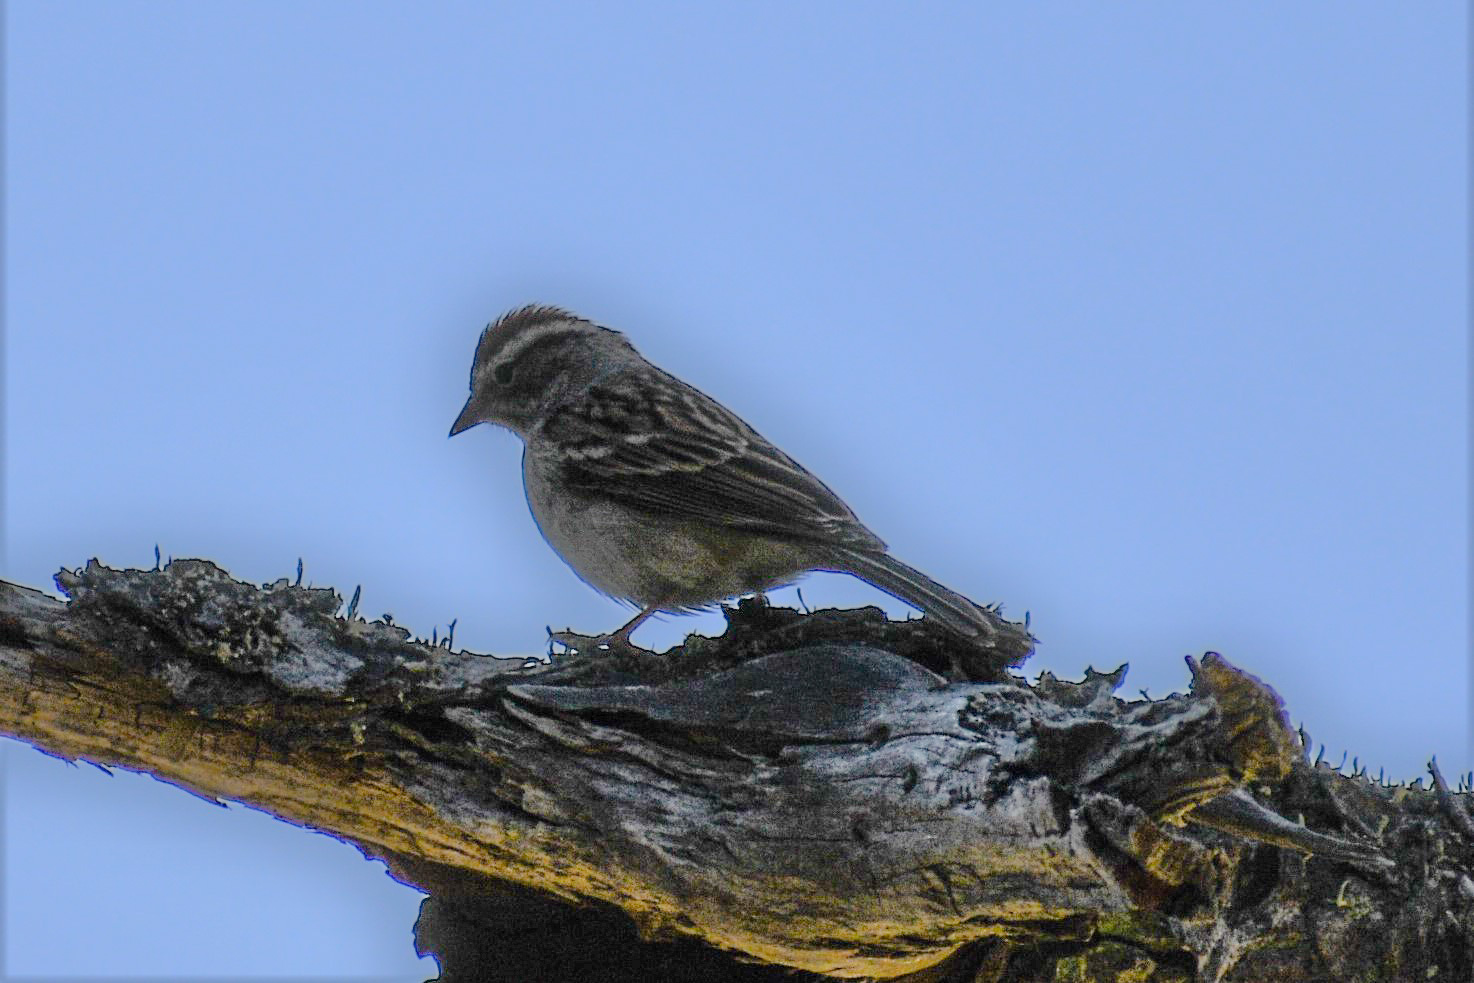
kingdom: Animalia
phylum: Chordata
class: Aves
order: Passeriformes
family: Passerellidae
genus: Spizella
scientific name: Spizella passerina
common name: Chipping sparrow
